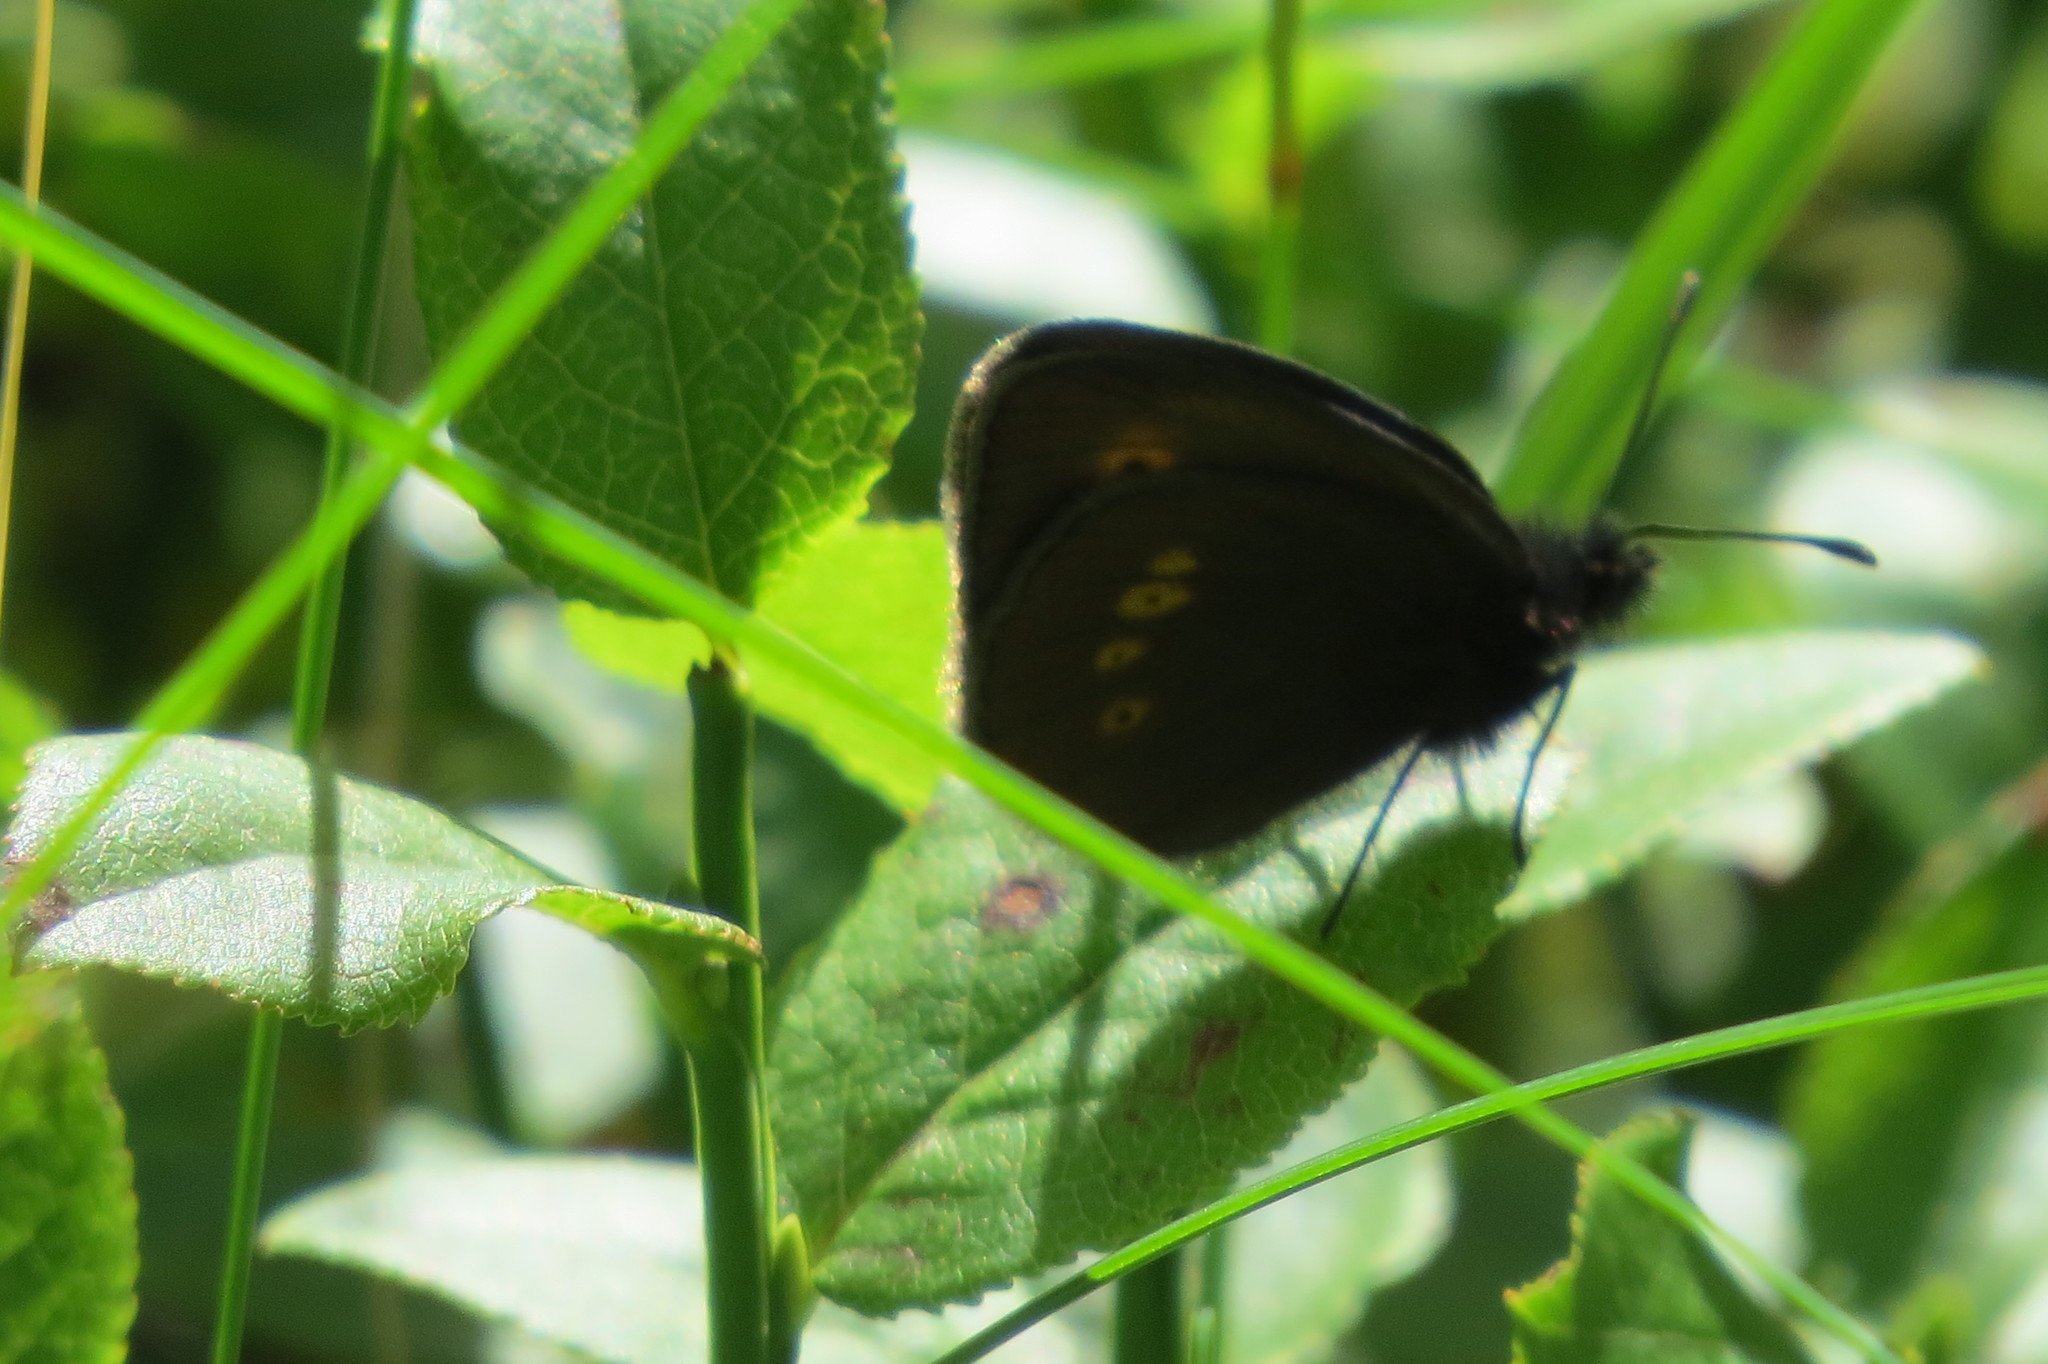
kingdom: Animalia
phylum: Arthropoda
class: Insecta
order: Lepidoptera
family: Nymphalidae
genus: Erebia
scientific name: Erebia melampus
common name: Lesser mountain ringlet
